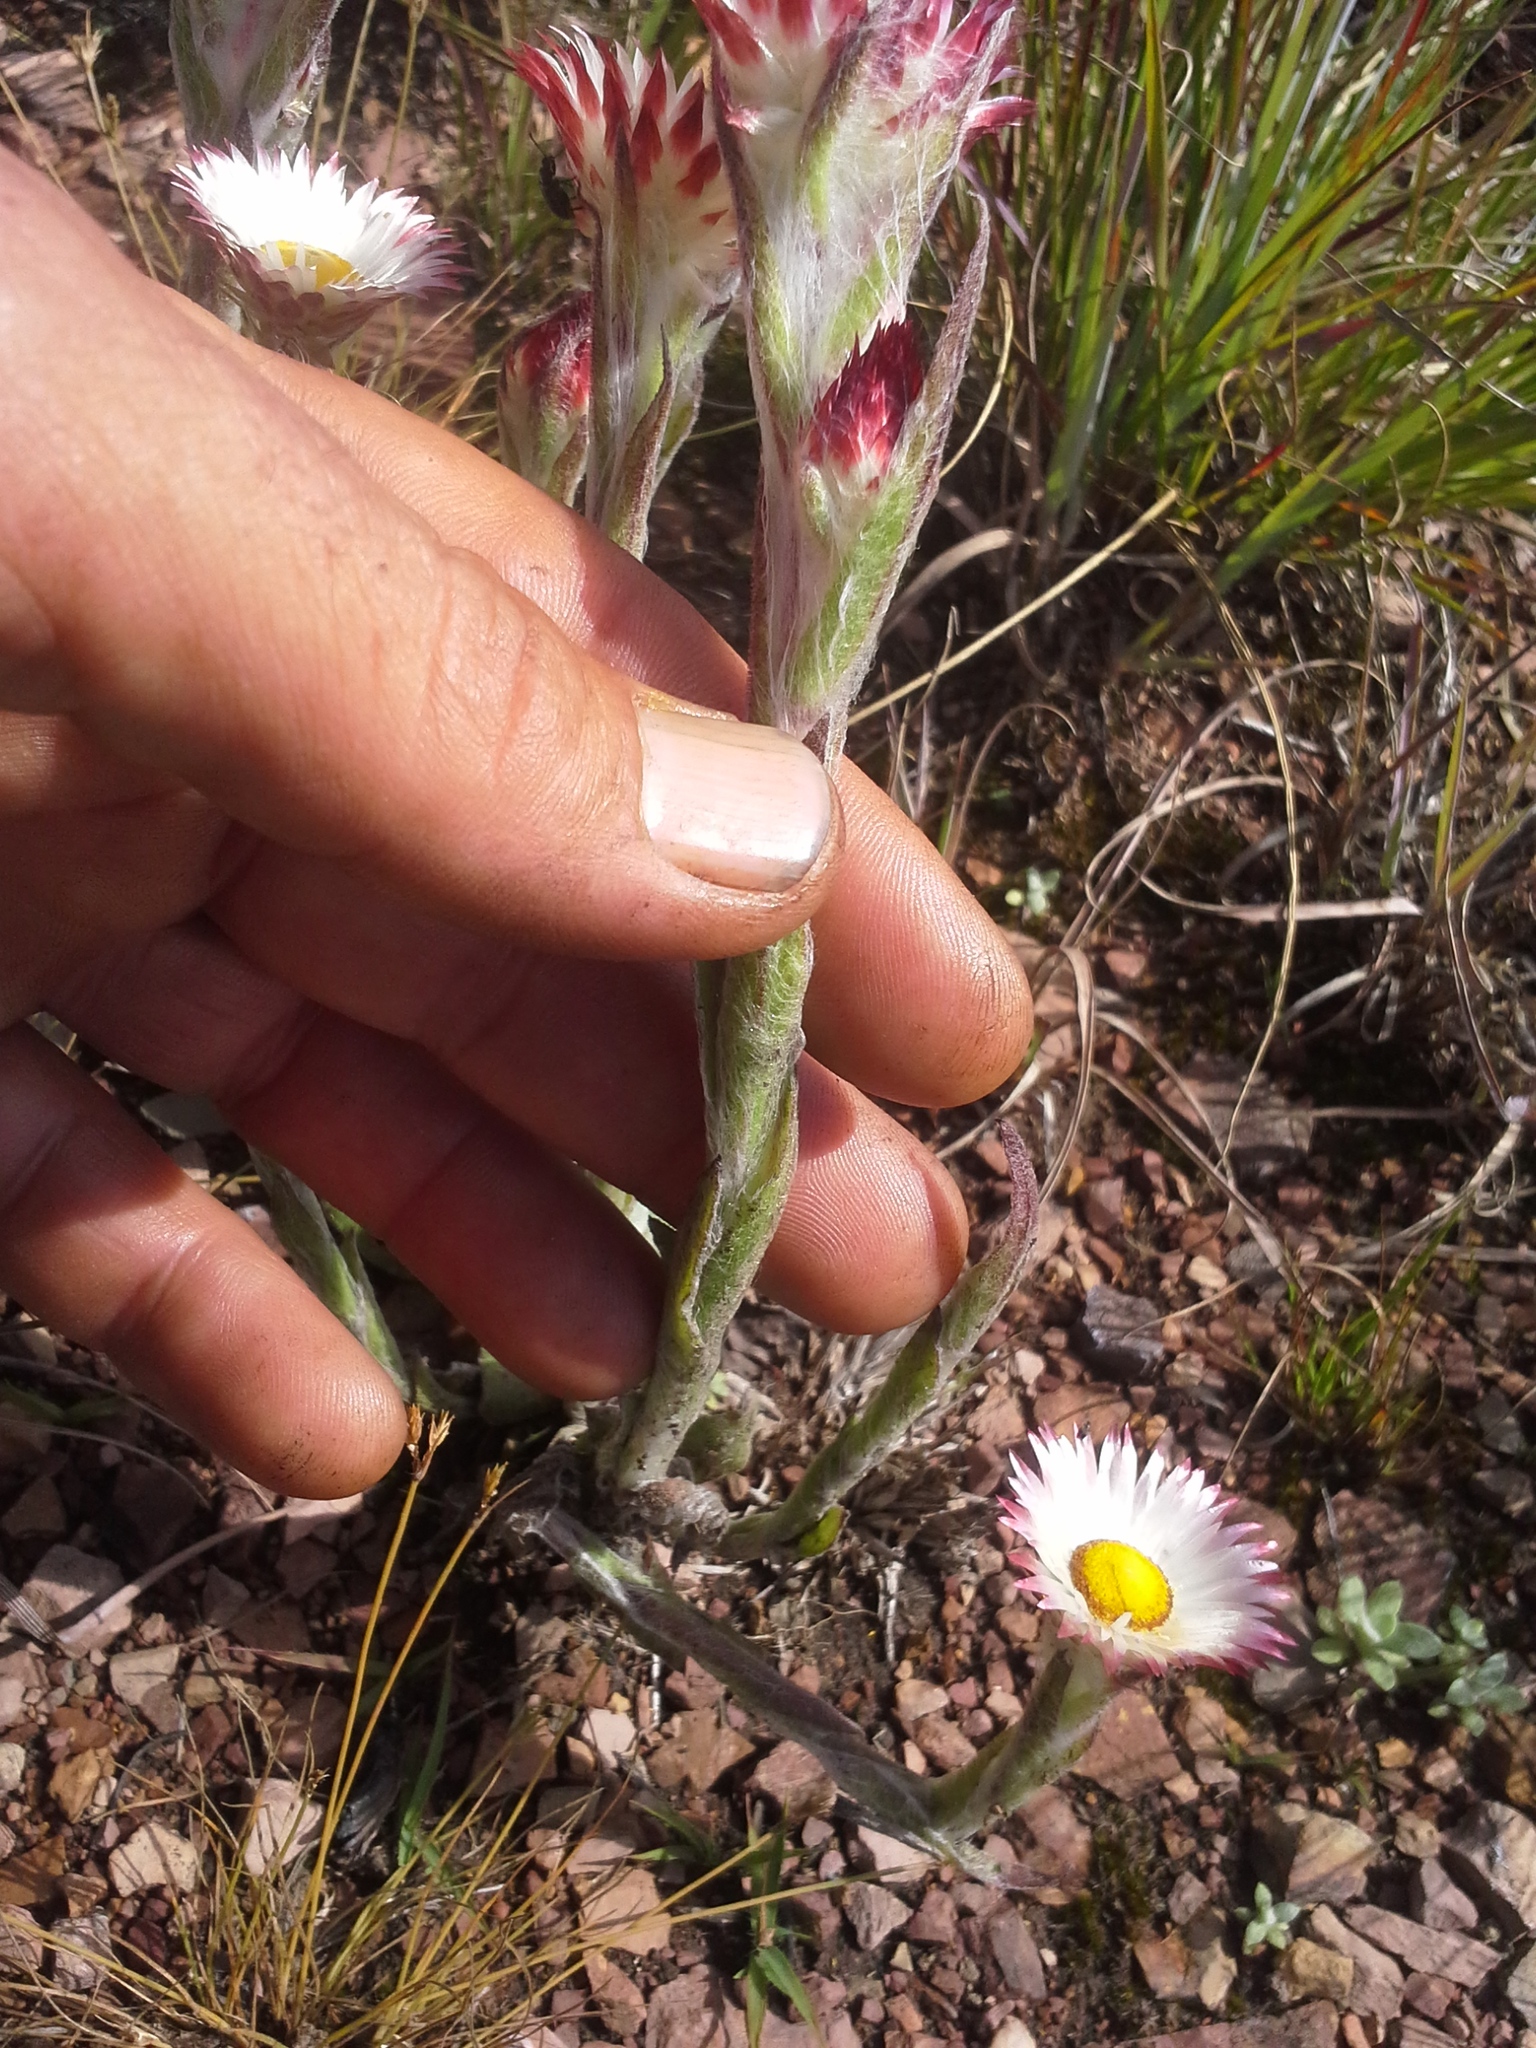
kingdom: Plantae
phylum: Tracheophyta
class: Magnoliopsida
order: Asterales
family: Asteraceae
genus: Helichrysum
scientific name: Helichrysum adenocarpum
